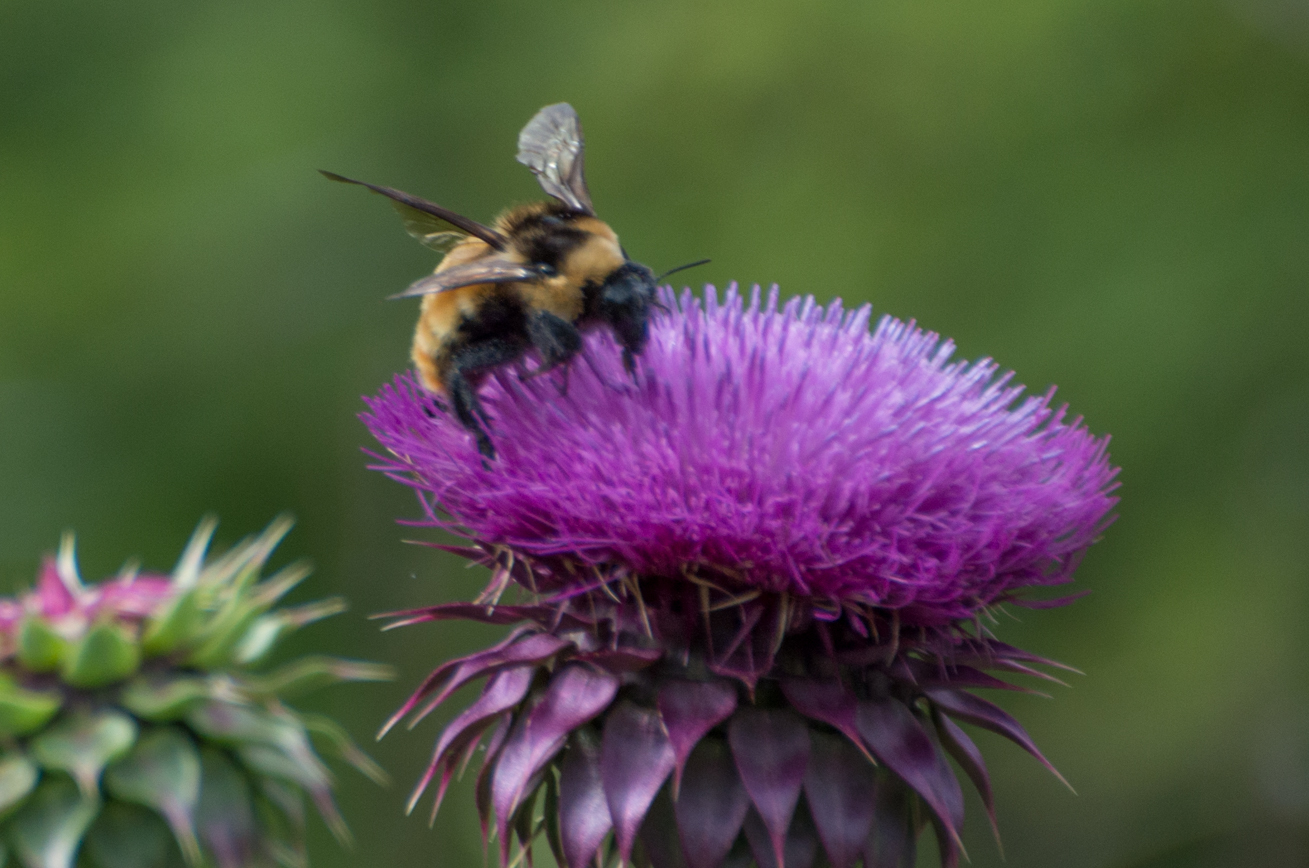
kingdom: Animalia
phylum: Arthropoda
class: Insecta
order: Hymenoptera
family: Apidae
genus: Bombus
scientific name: Bombus opifex
